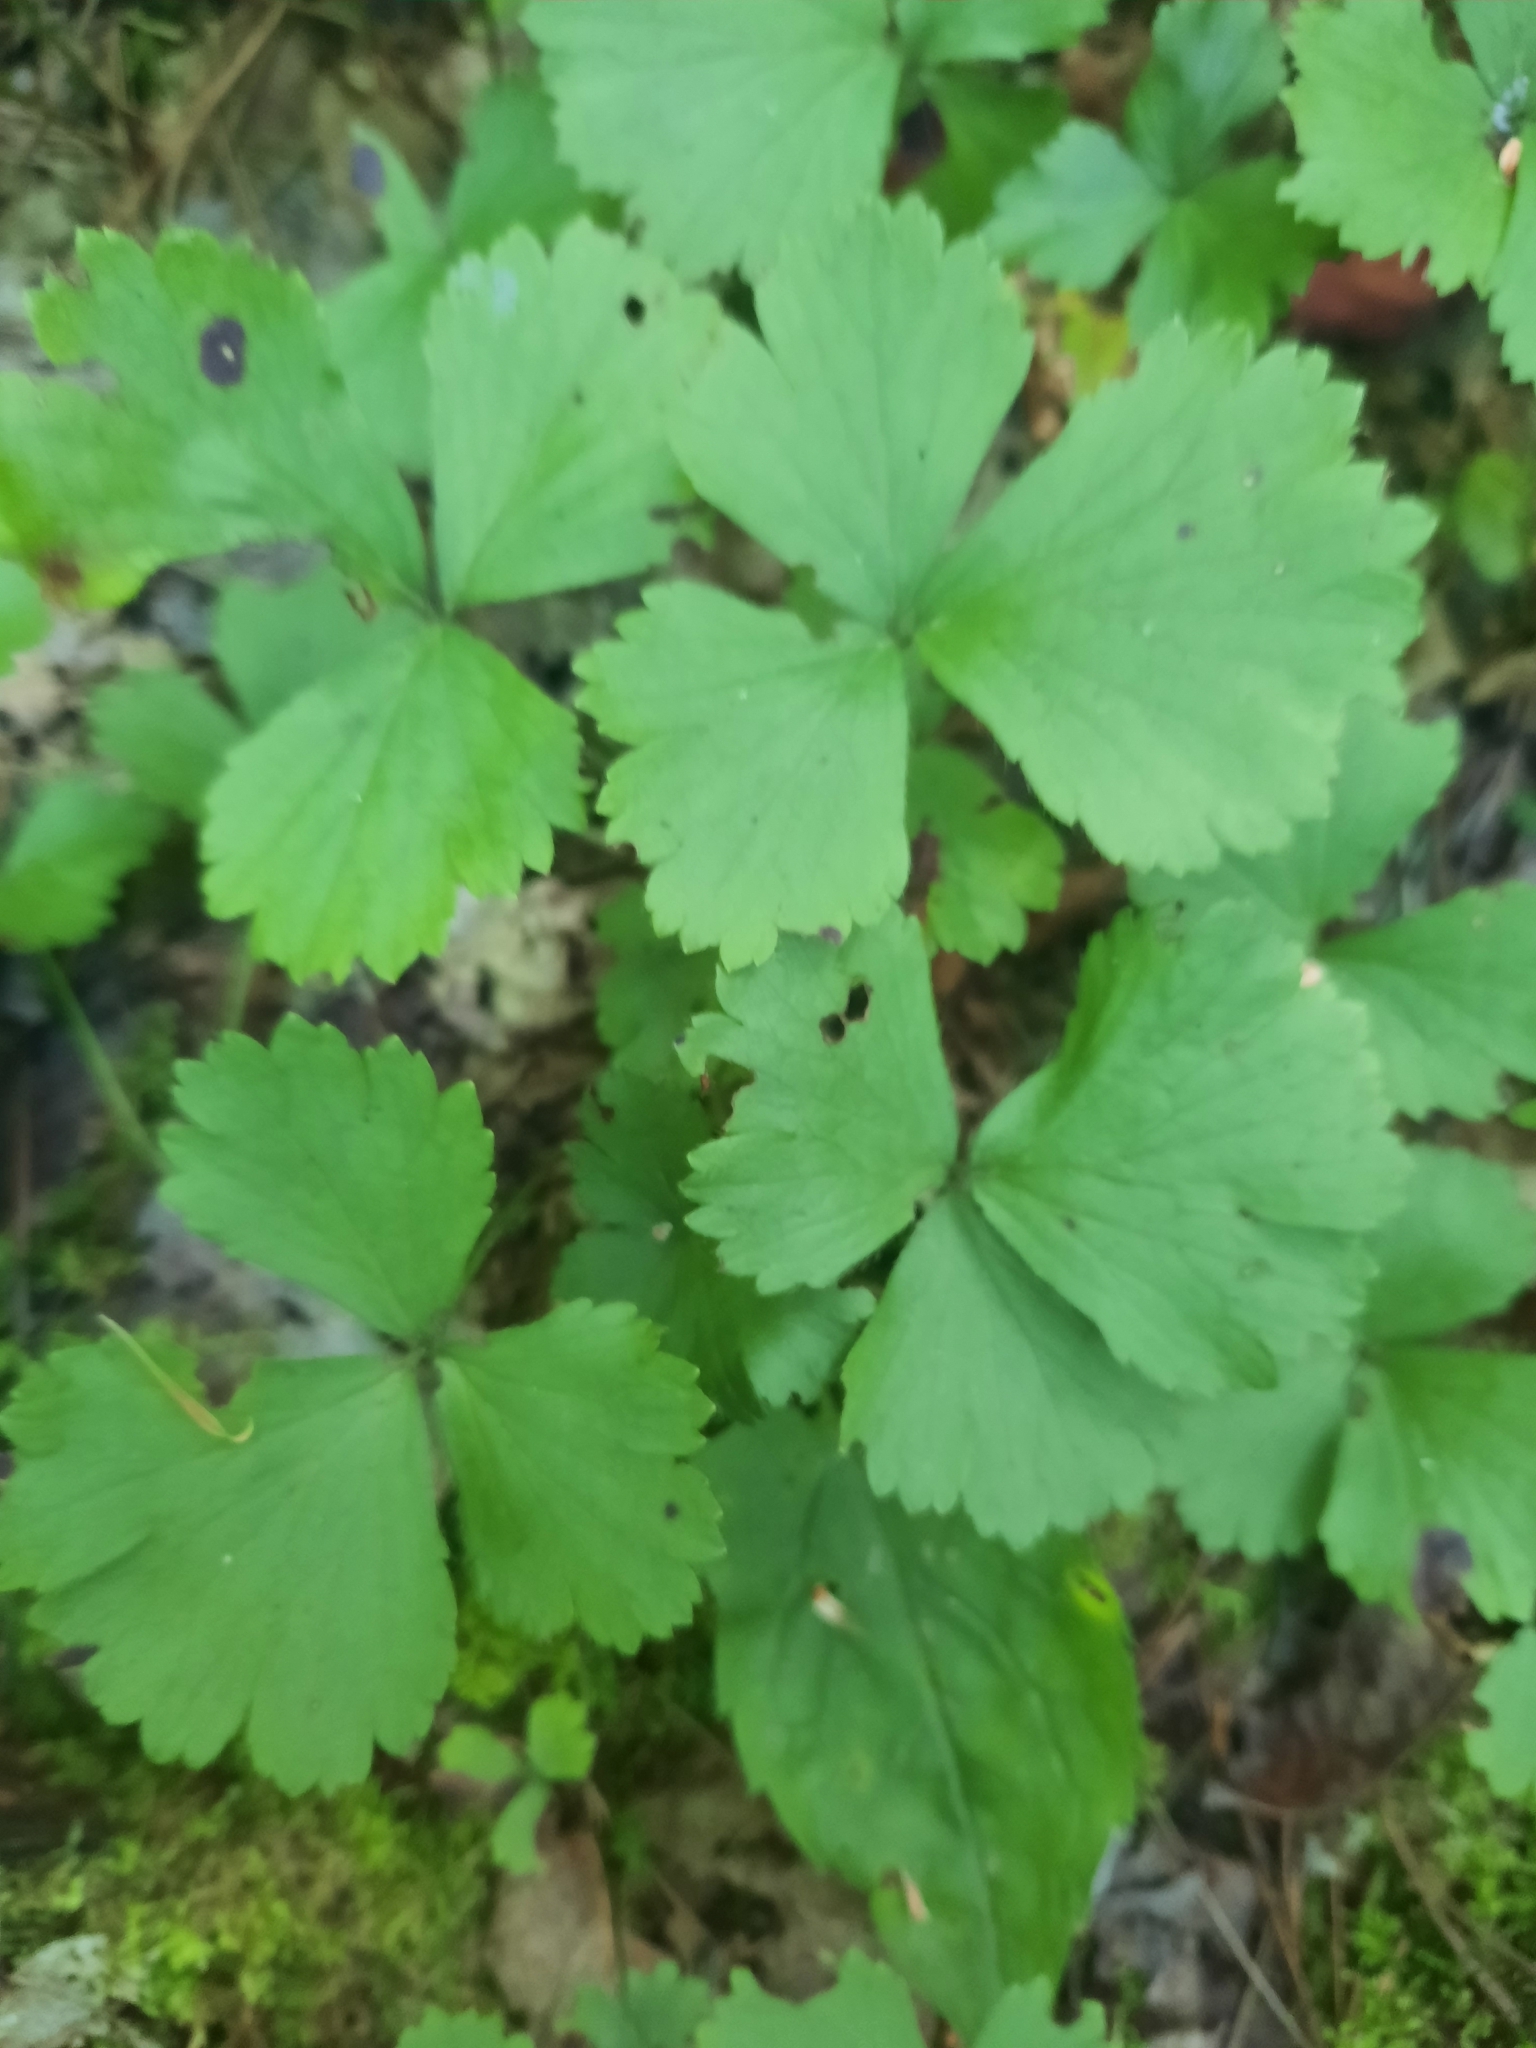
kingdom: Plantae
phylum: Tracheophyta
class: Magnoliopsida
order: Rosales
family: Rosaceae
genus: Geum
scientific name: Geum fragarioides
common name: Appalachian barren strawberry
